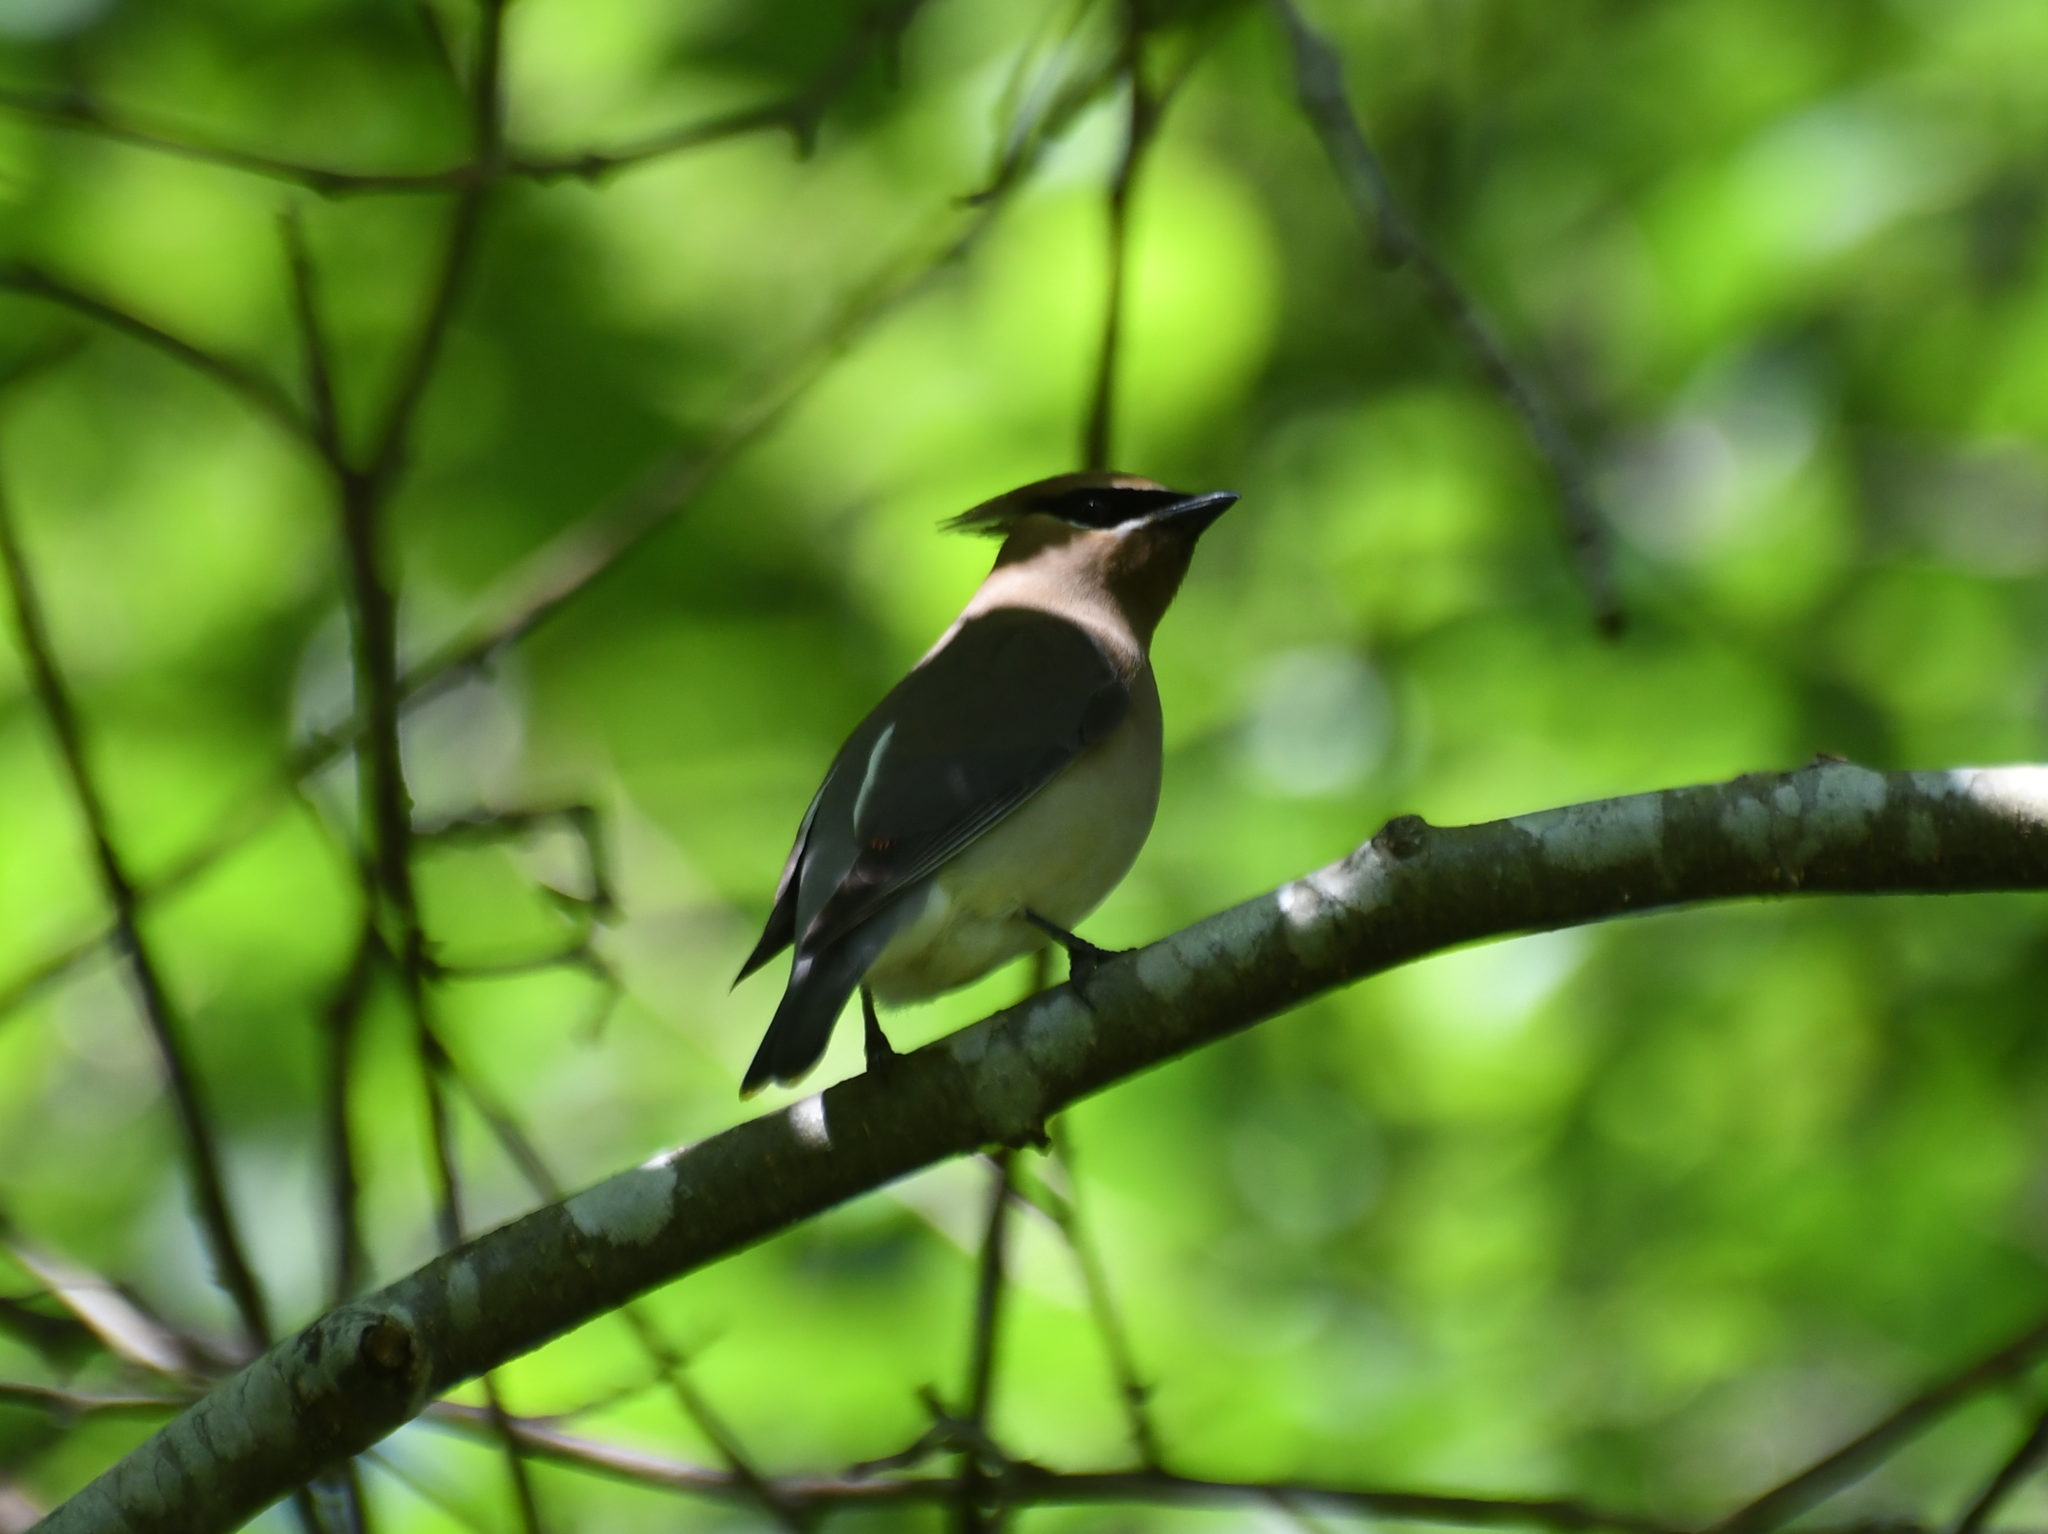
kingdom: Animalia
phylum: Chordata
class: Aves
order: Passeriformes
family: Bombycillidae
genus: Bombycilla
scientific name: Bombycilla cedrorum
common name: Cedar waxwing
